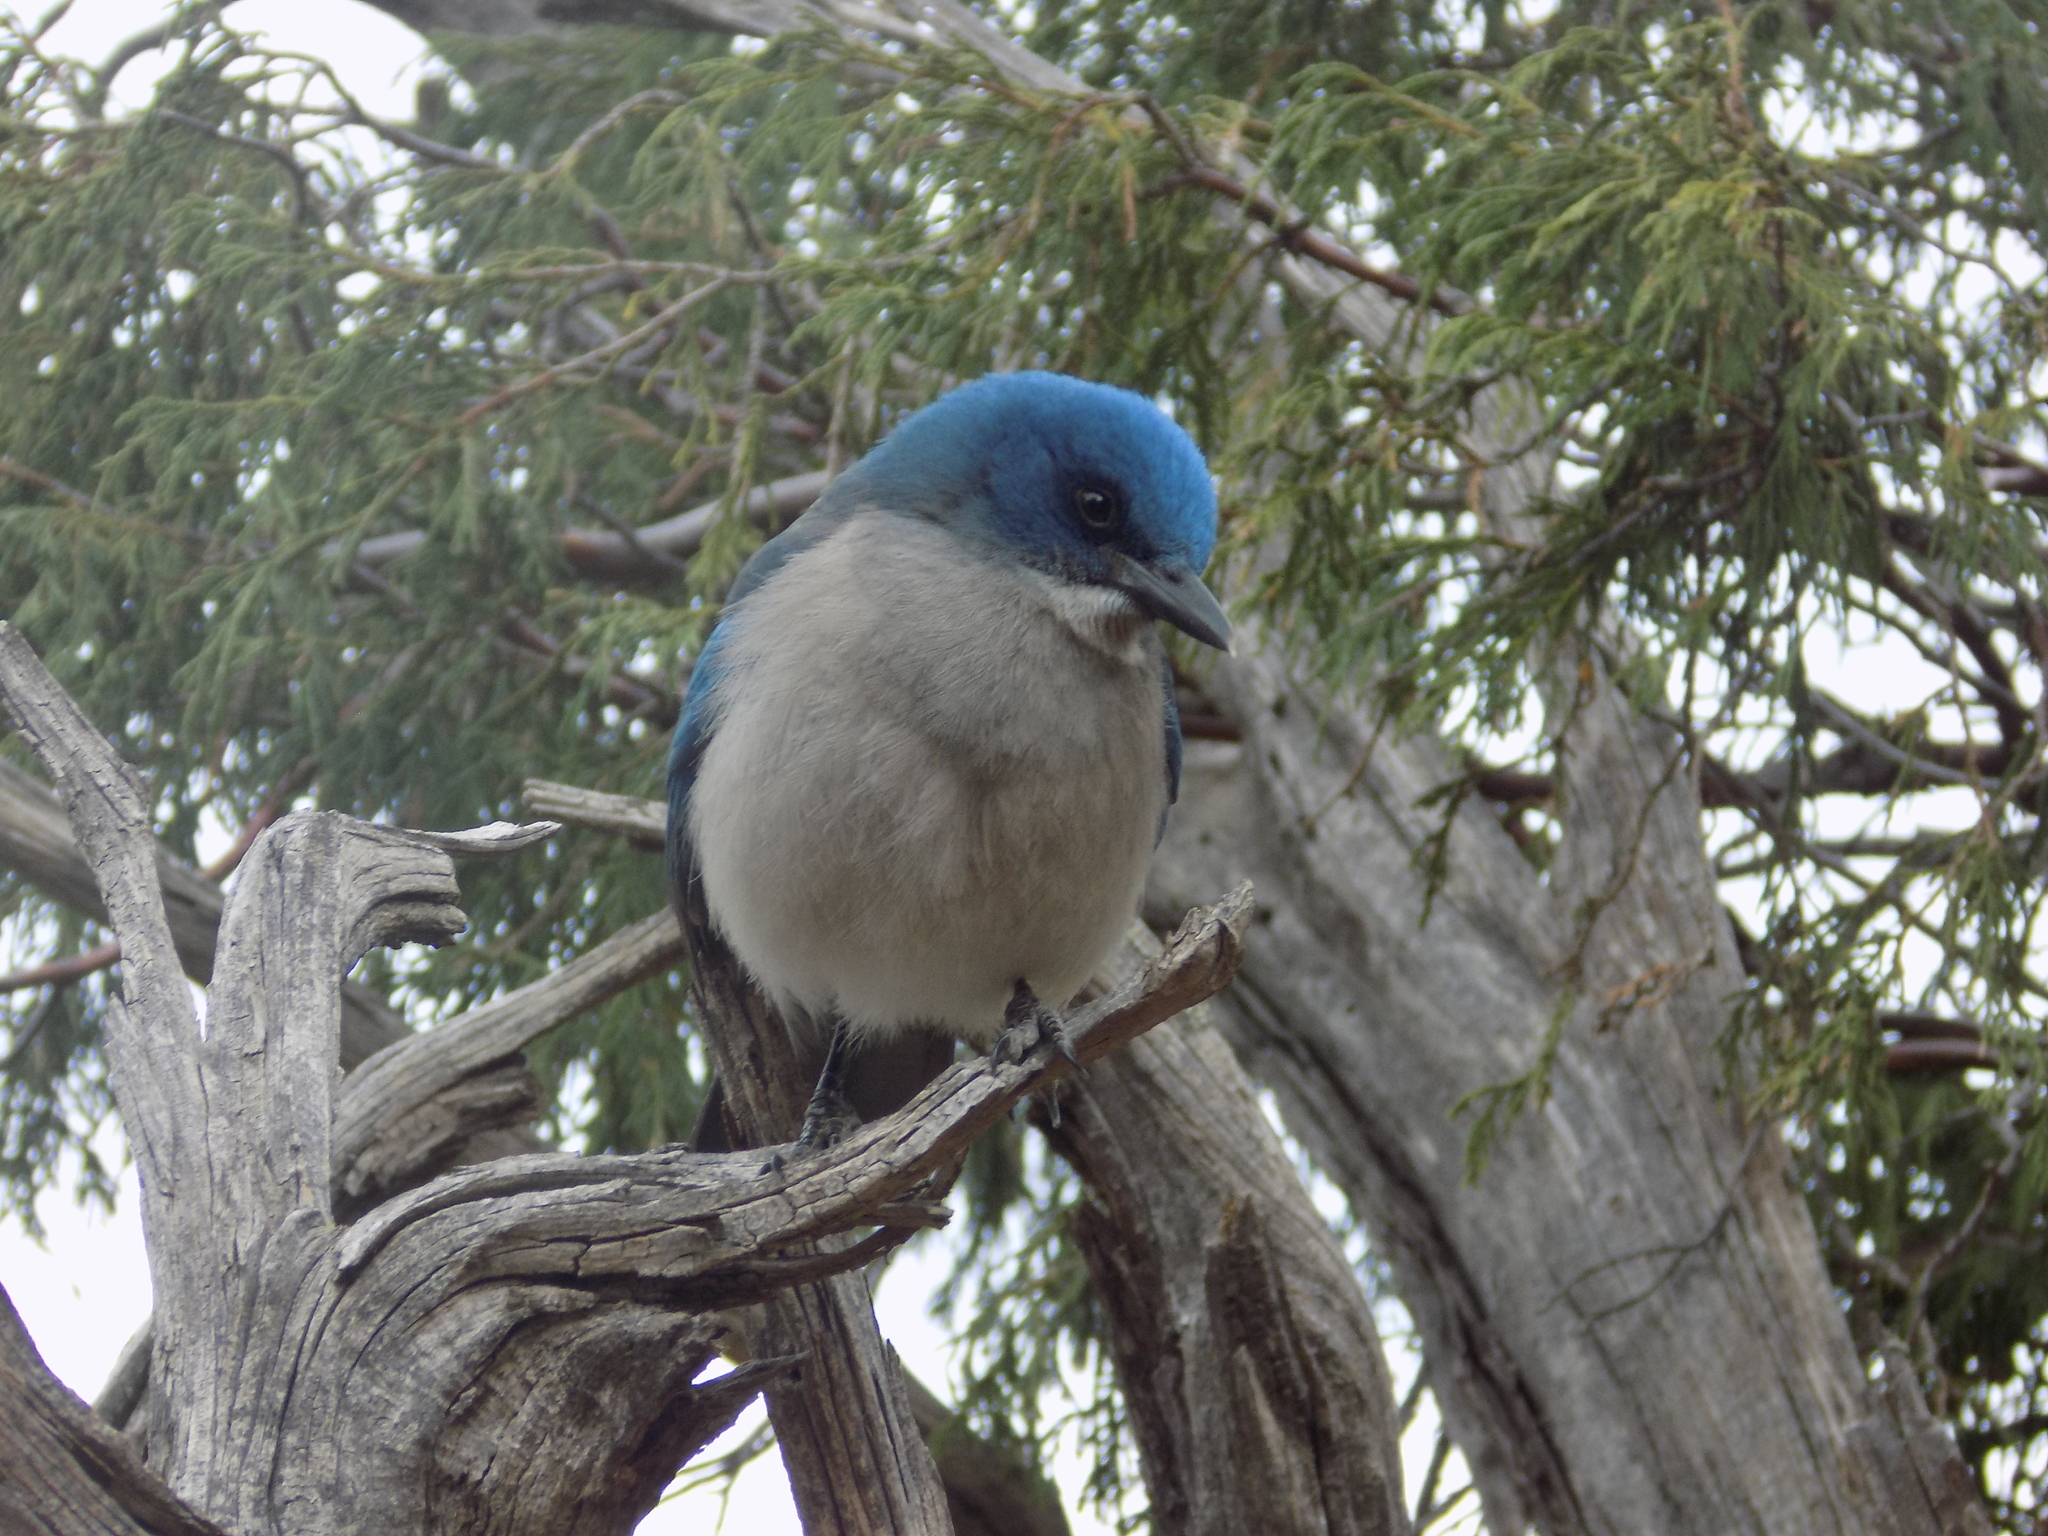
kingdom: Animalia
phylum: Chordata
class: Aves
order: Passeriformes
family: Corvidae
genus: Aphelocoma
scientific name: Aphelocoma wollweberi
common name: Mexican jay
